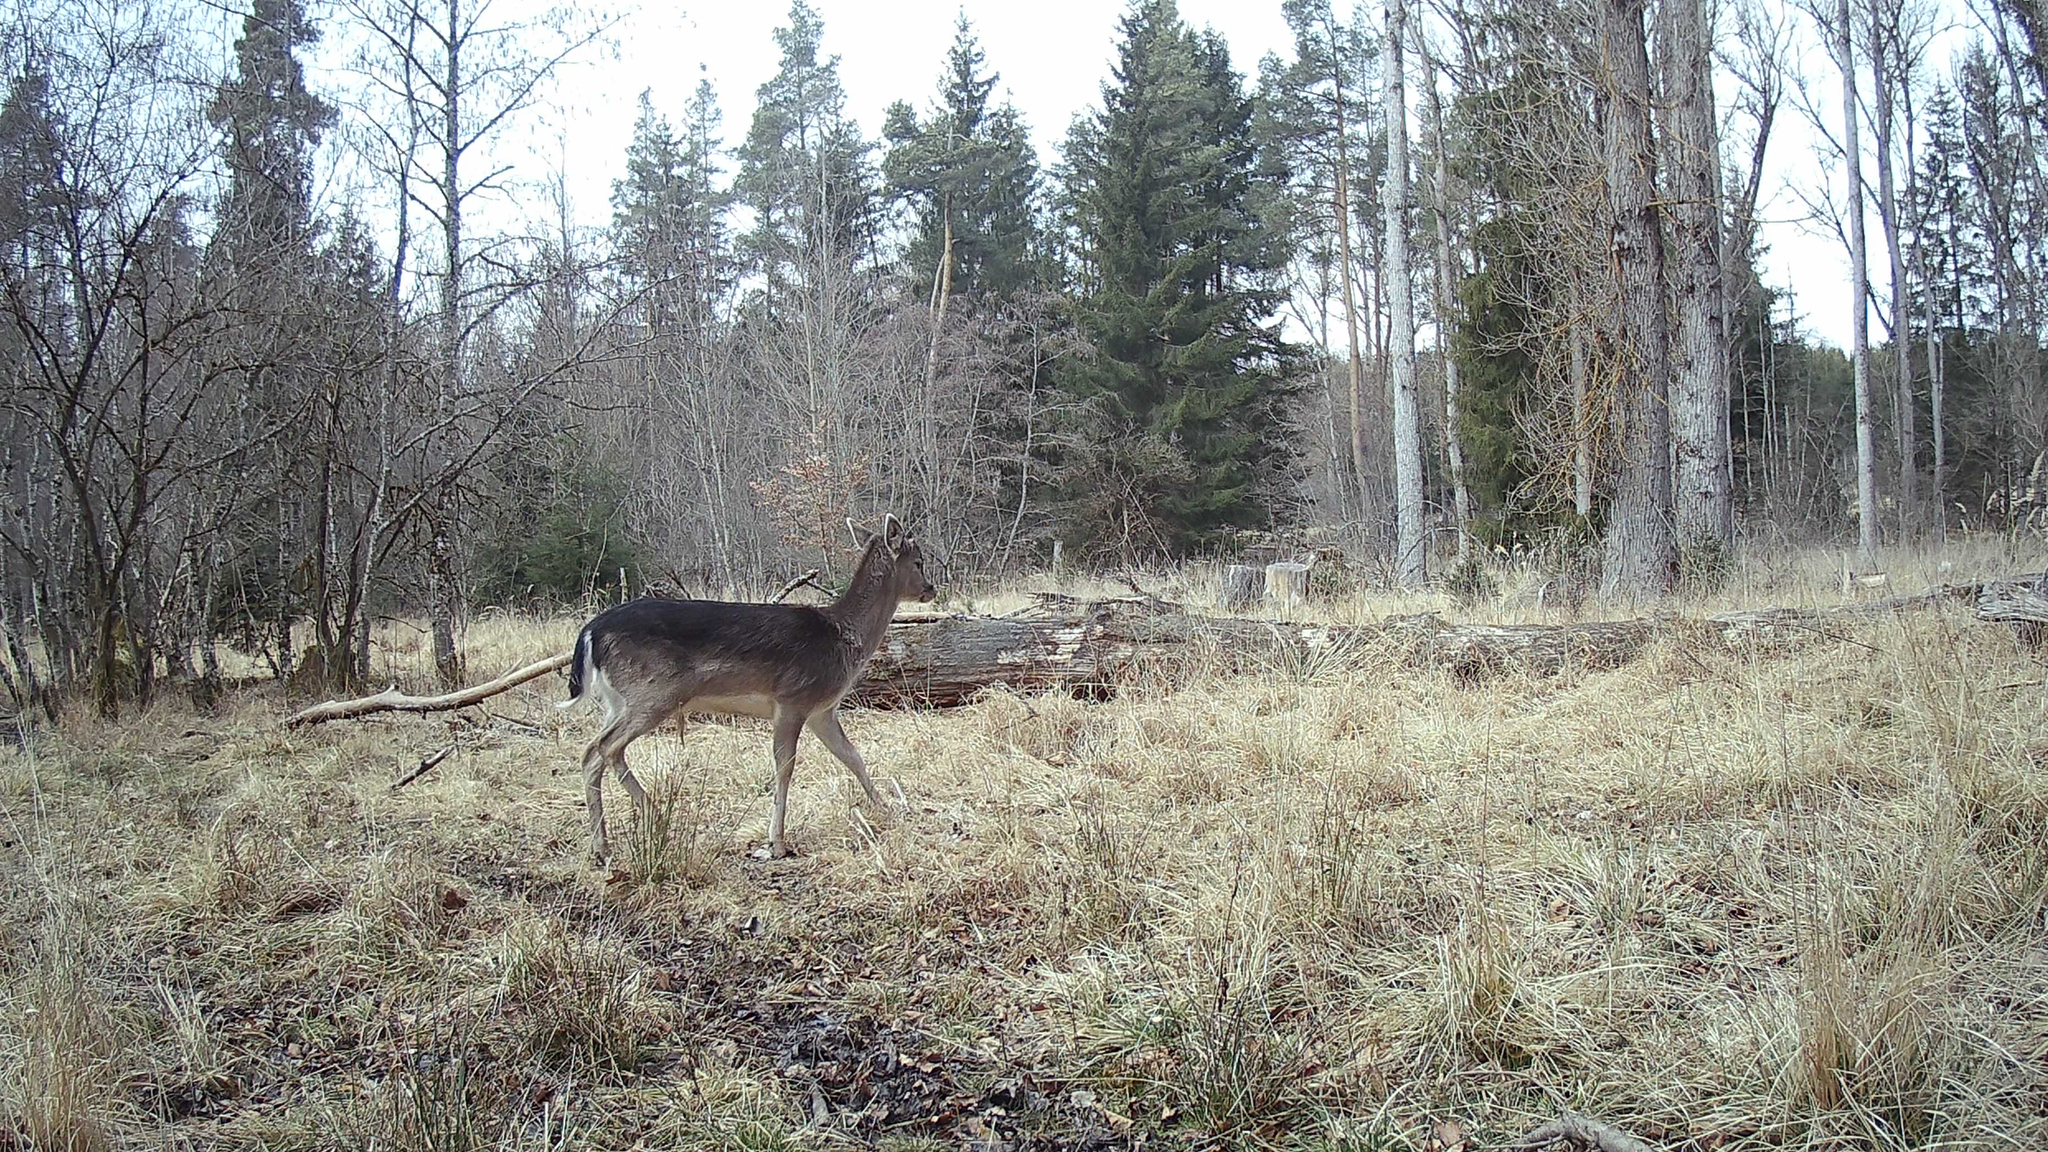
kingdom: Animalia
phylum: Chordata
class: Mammalia
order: Artiodactyla
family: Cervidae
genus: Dama
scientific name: Dama dama
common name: Fallow deer
